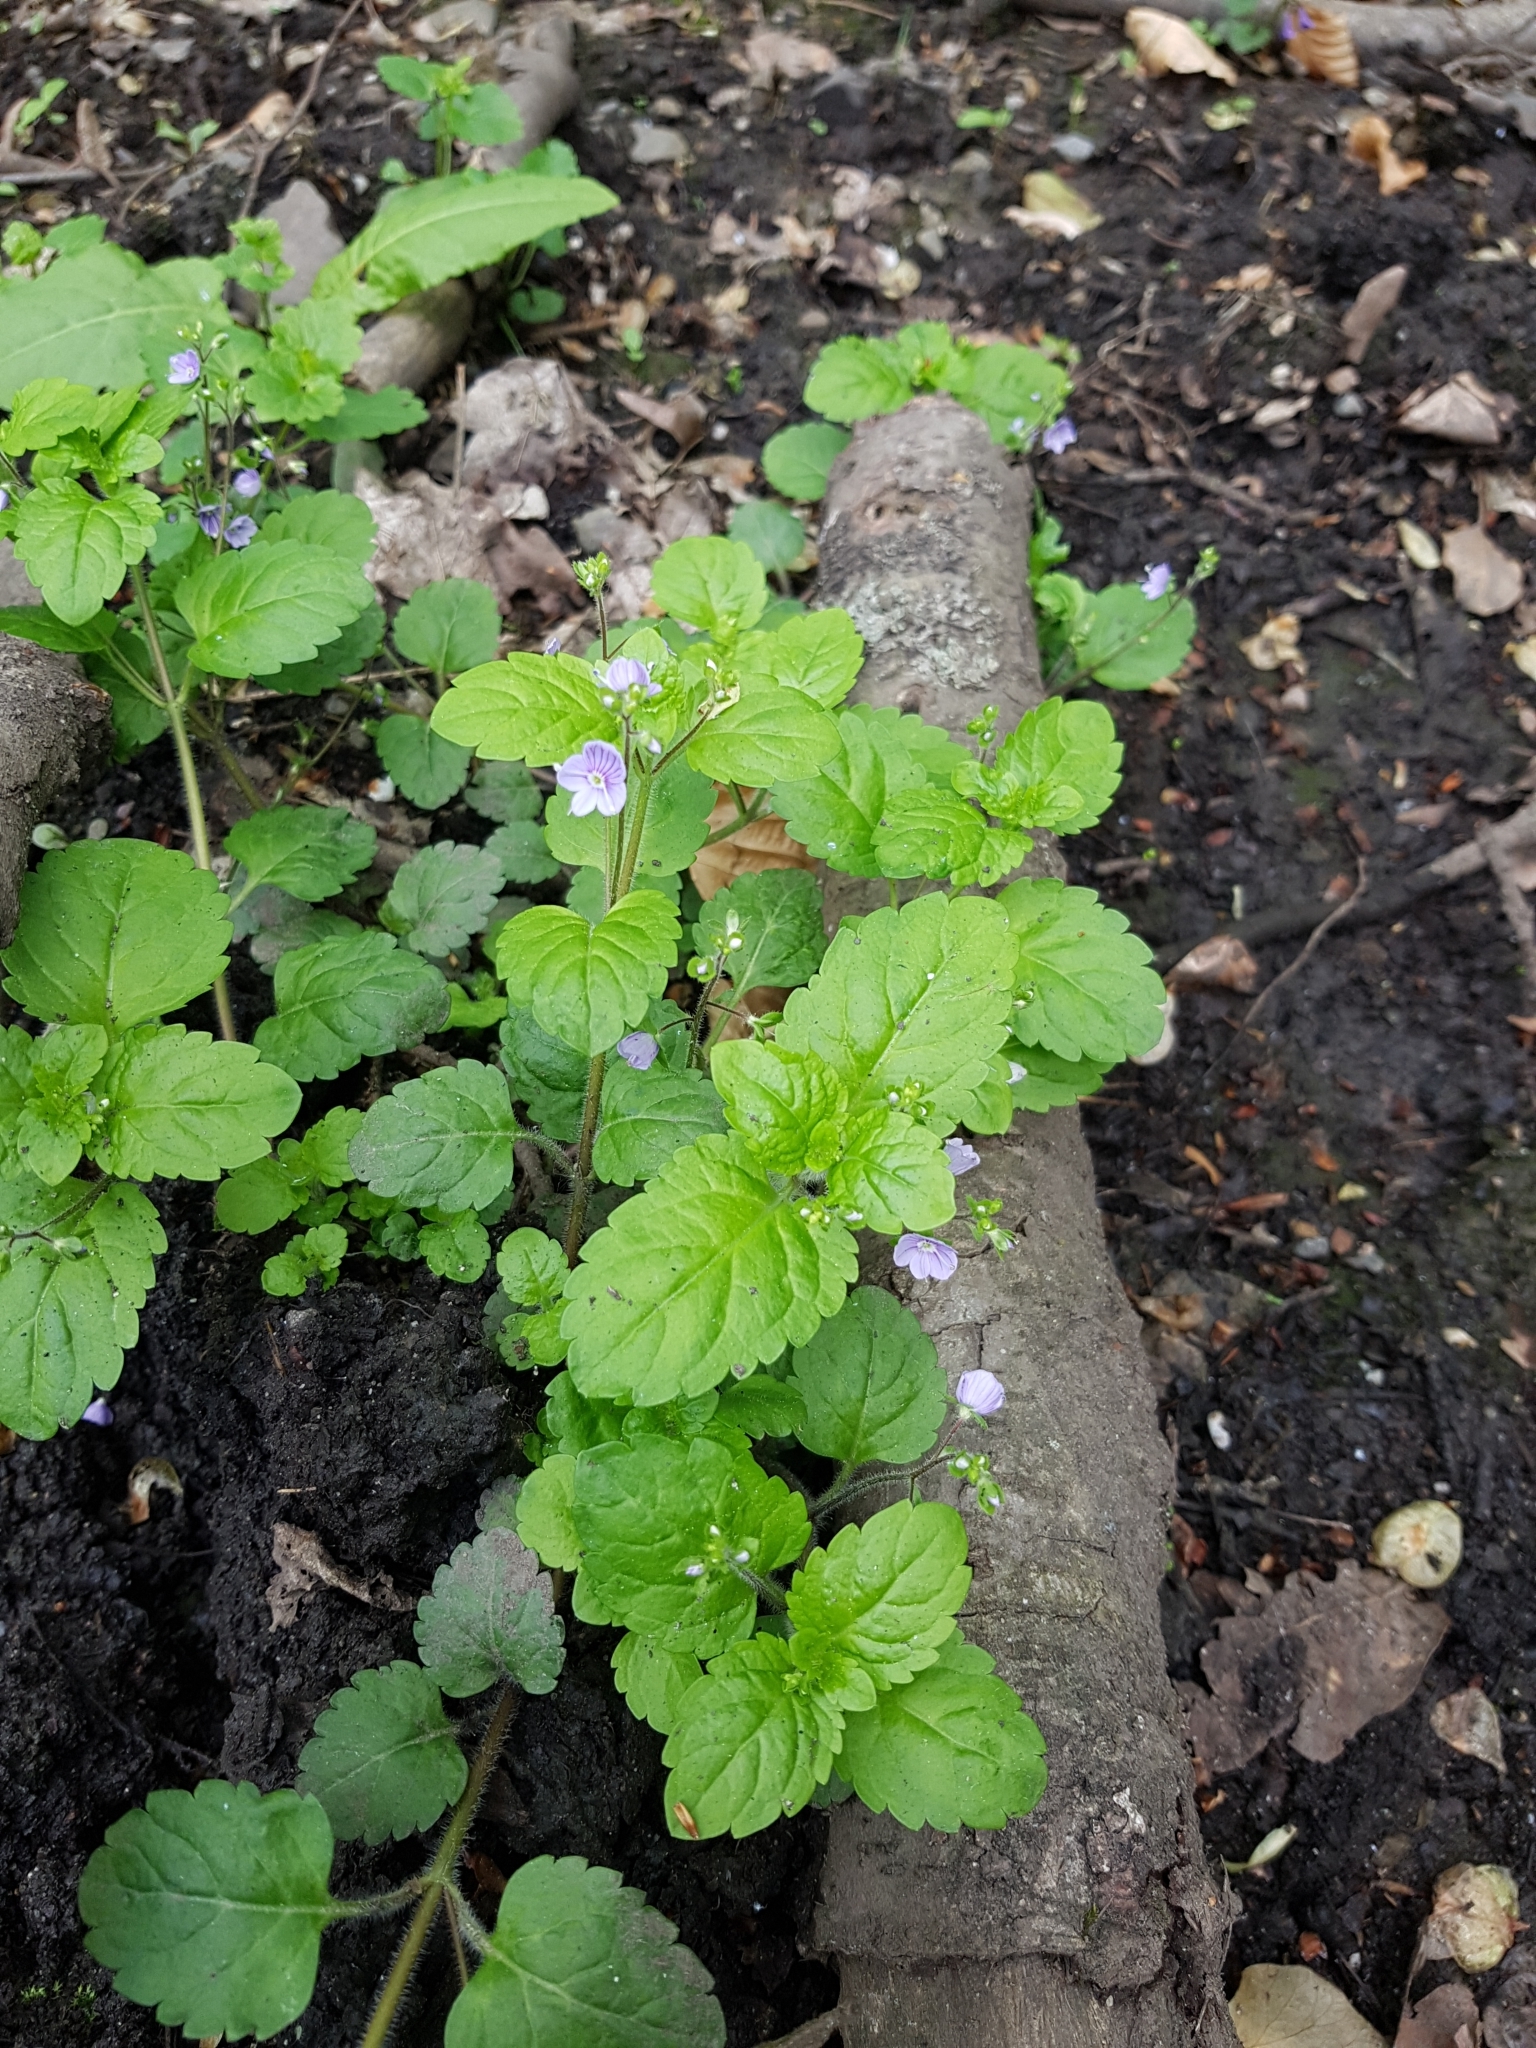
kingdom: Plantae
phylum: Tracheophyta
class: Magnoliopsida
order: Lamiales
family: Plantaginaceae
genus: Veronica
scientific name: Veronica montana
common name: Wood speedwell
